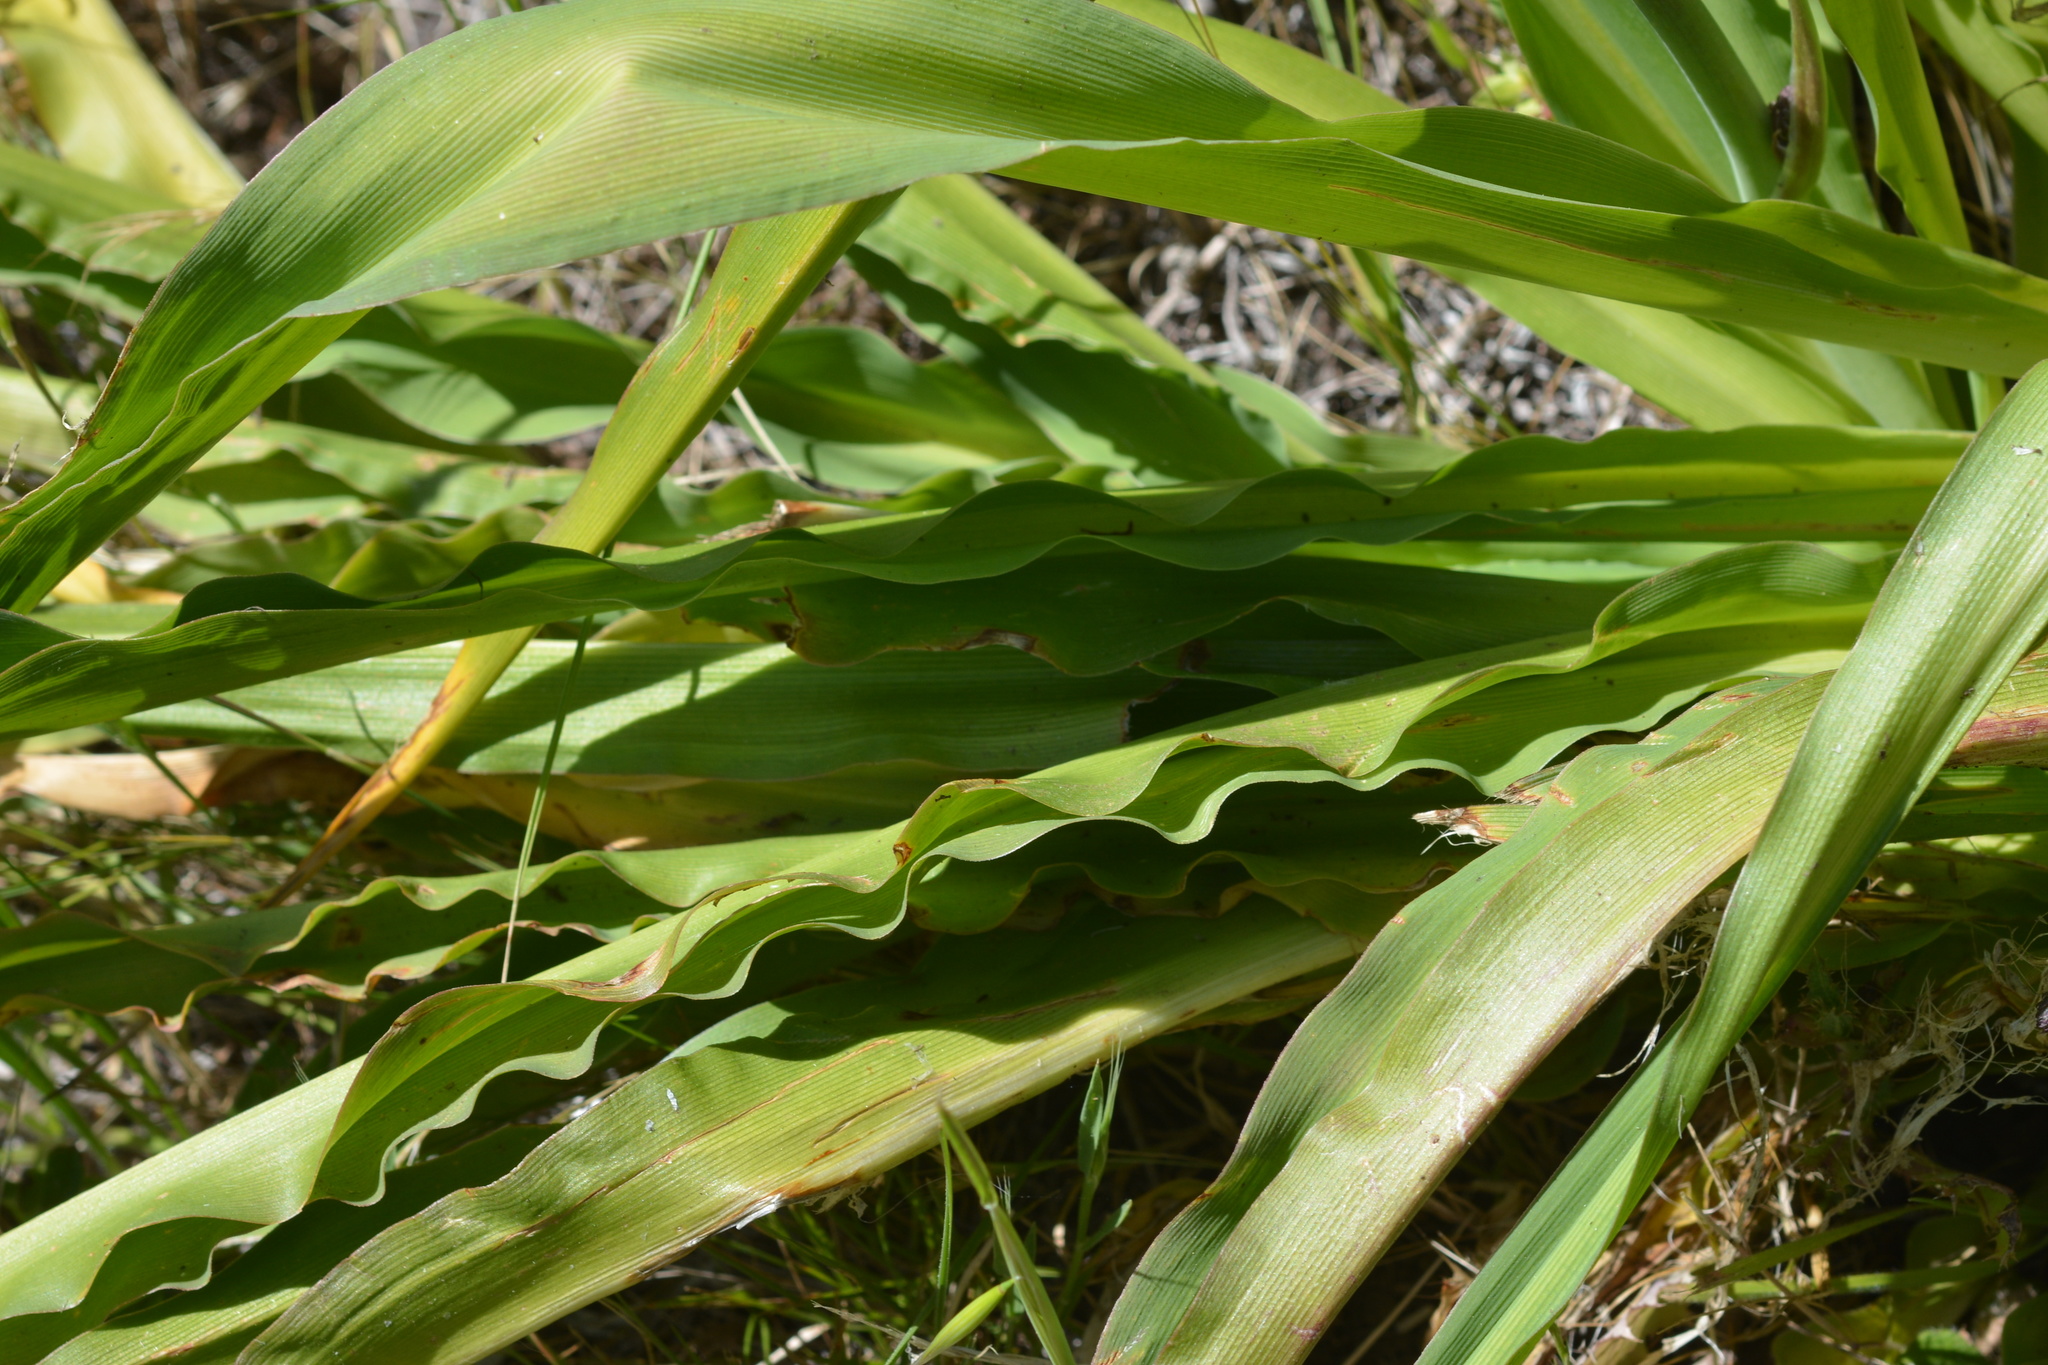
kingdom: Plantae
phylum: Tracheophyta
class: Liliopsida
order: Asparagales
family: Asparagaceae
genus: Chlorogalum
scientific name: Chlorogalum pomeridianum
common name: Amole
